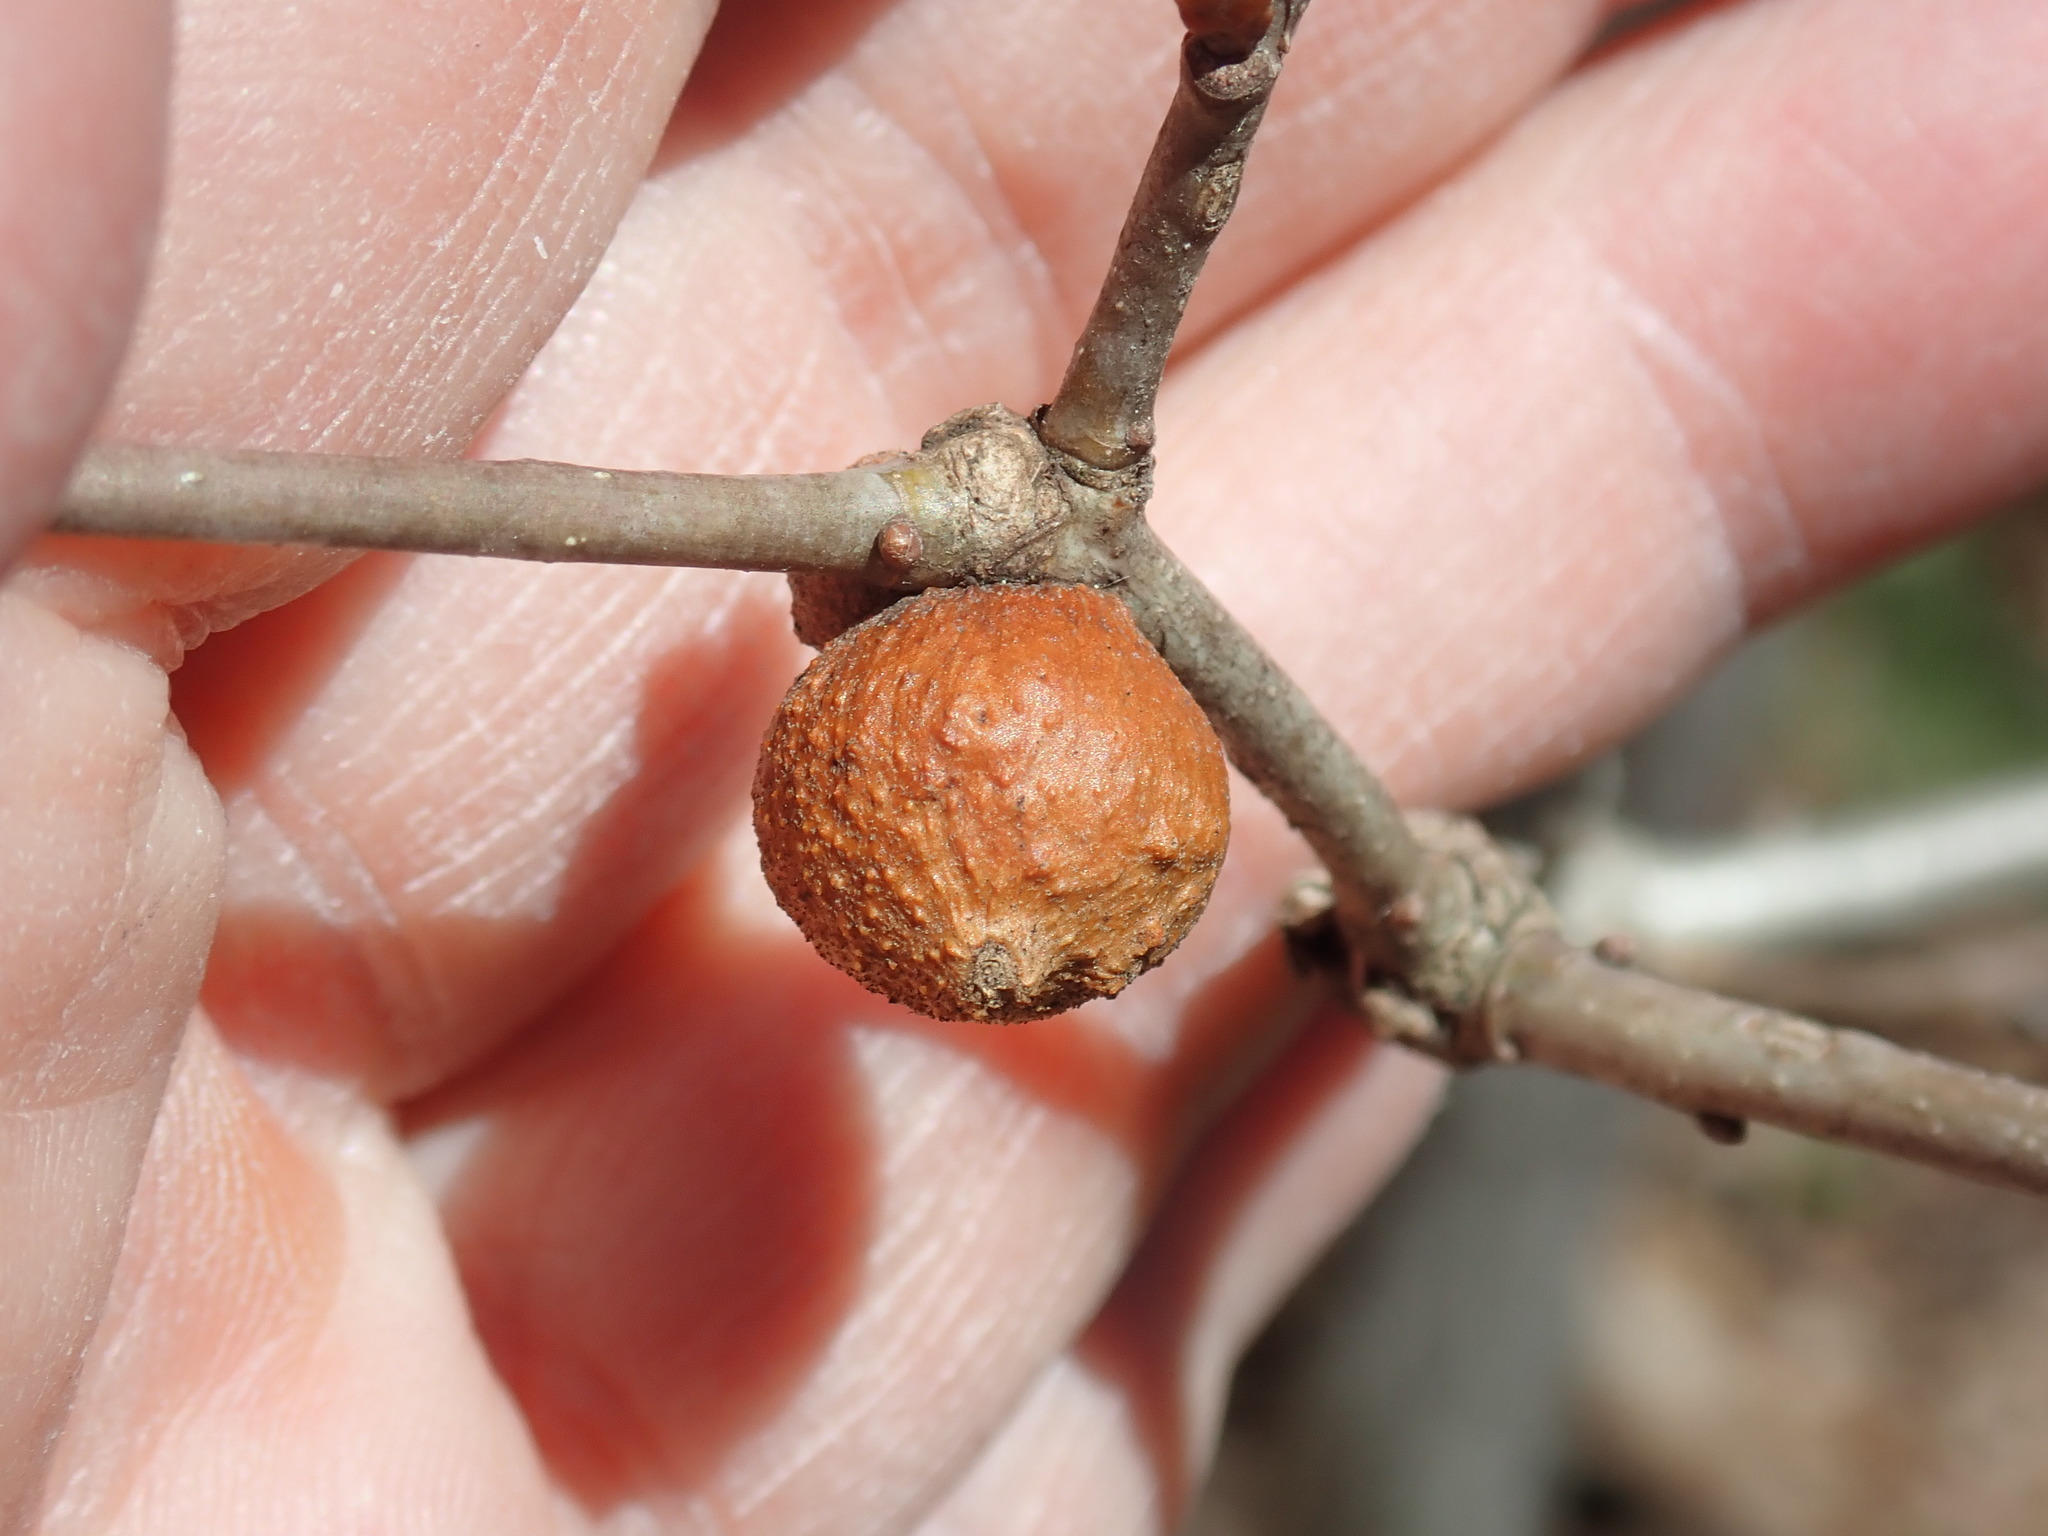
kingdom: Animalia
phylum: Arthropoda
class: Insecta
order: Hymenoptera
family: Cynipidae
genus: Disholcaspis
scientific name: Disholcaspis quercusglobulus
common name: Round bullet gall wasp
